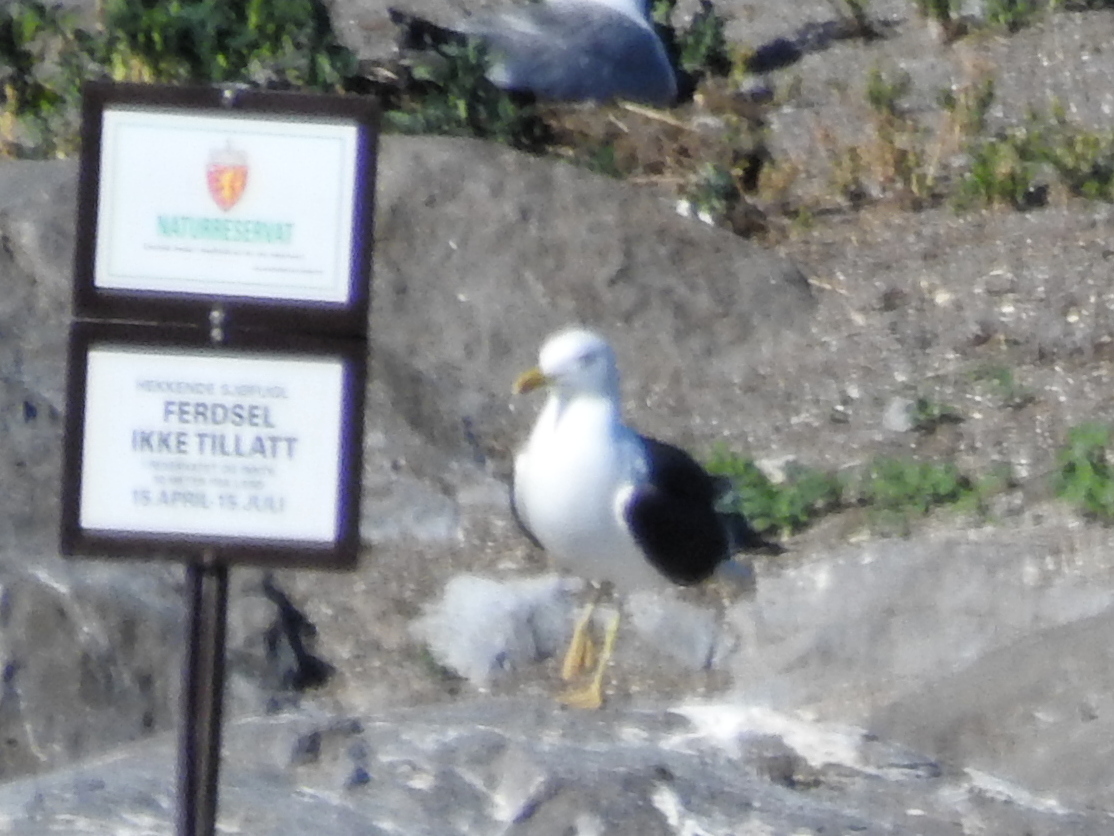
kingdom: Animalia
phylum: Chordata
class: Aves
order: Charadriiformes
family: Laridae
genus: Larus
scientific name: Larus fuscus
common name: Lesser black-backed gull
